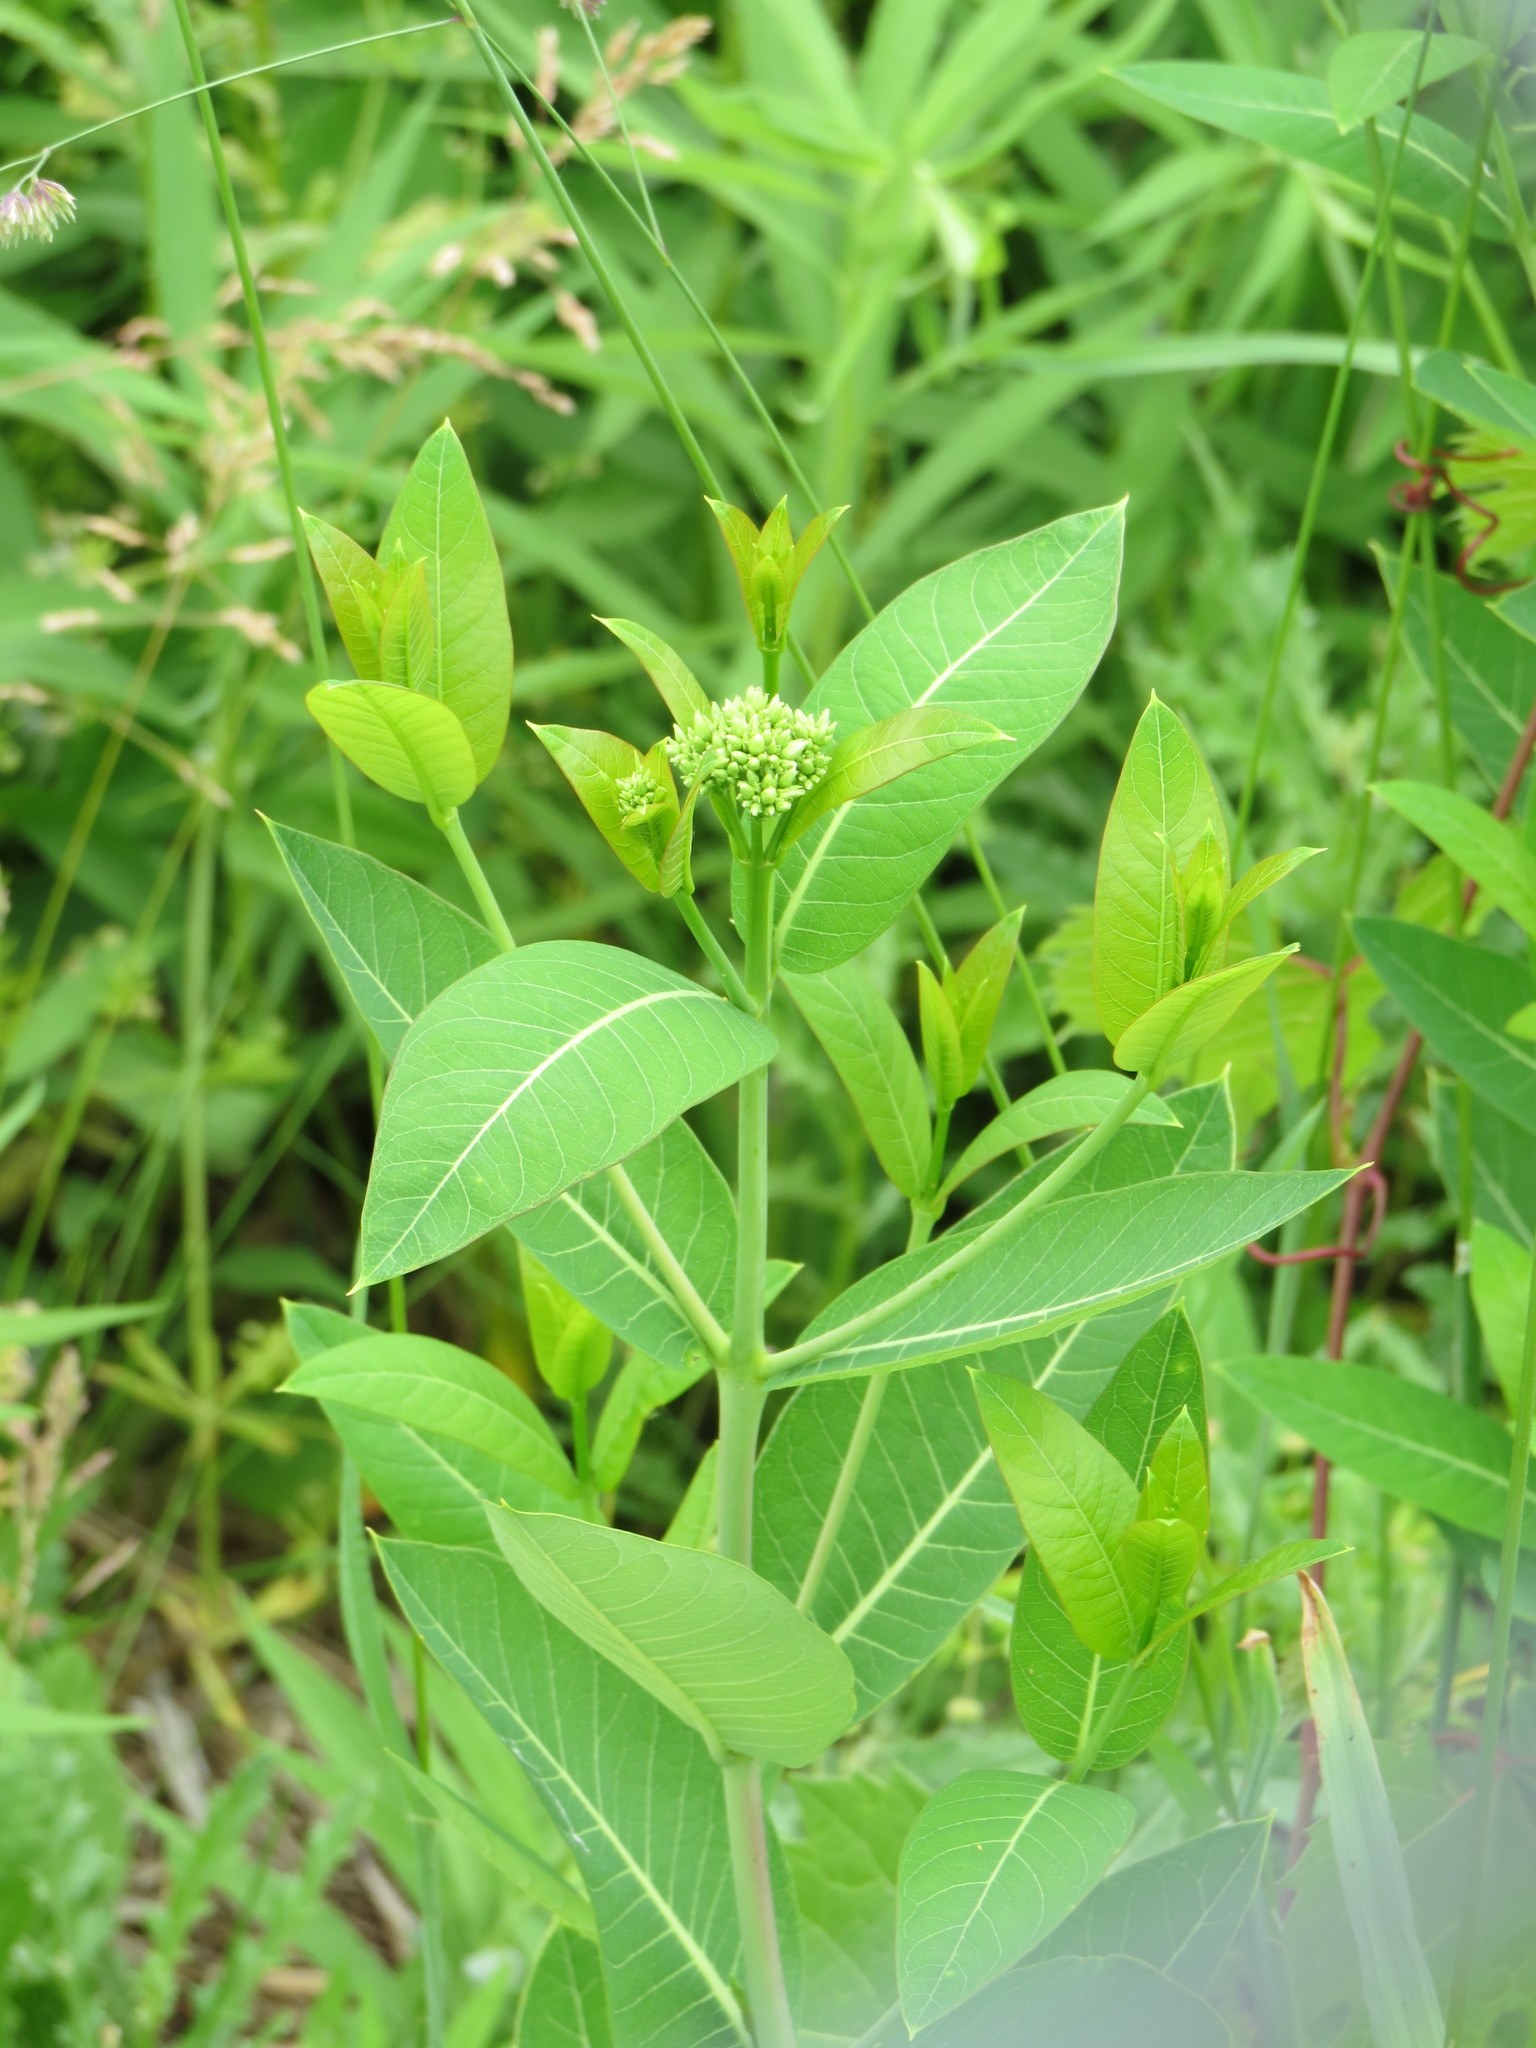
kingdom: Plantae
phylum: Tracheophyta
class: Magnoliopsida
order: Gentianales
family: Apocynaceae
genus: Apocynum
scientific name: Apocynum cannabinum
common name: Hemp dogbane
